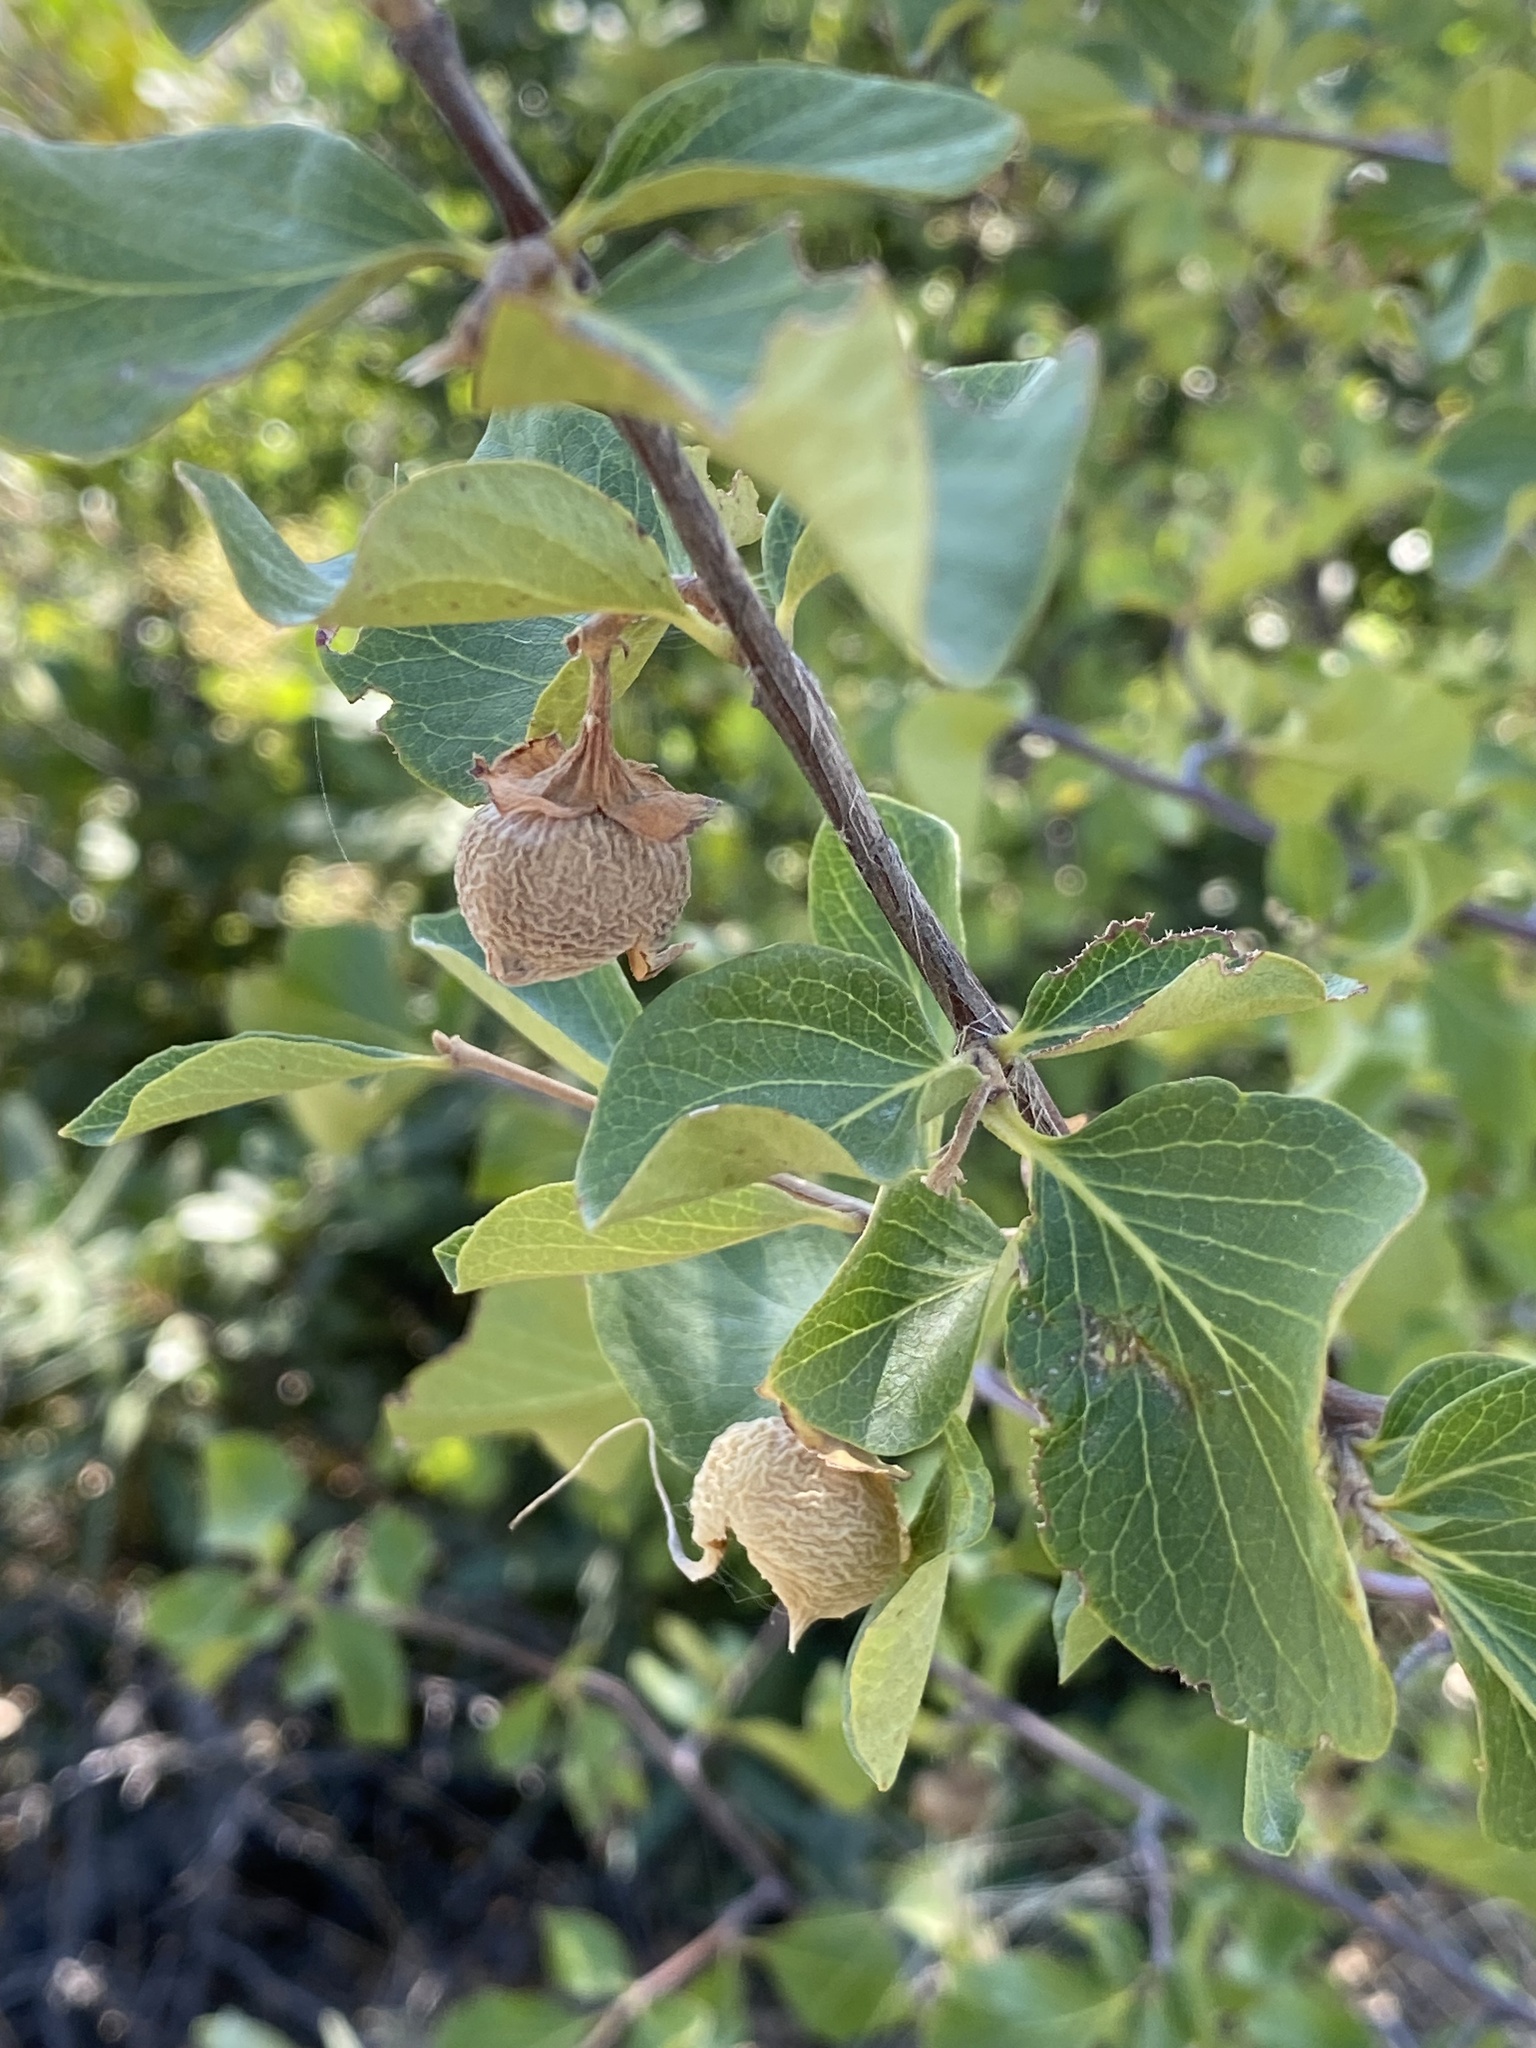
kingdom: Plantae
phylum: Tracheophyta
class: Magnoliopsida
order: Ericales
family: Styracaceae
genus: Styrax
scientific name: Styrax redivivus
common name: California styrax
